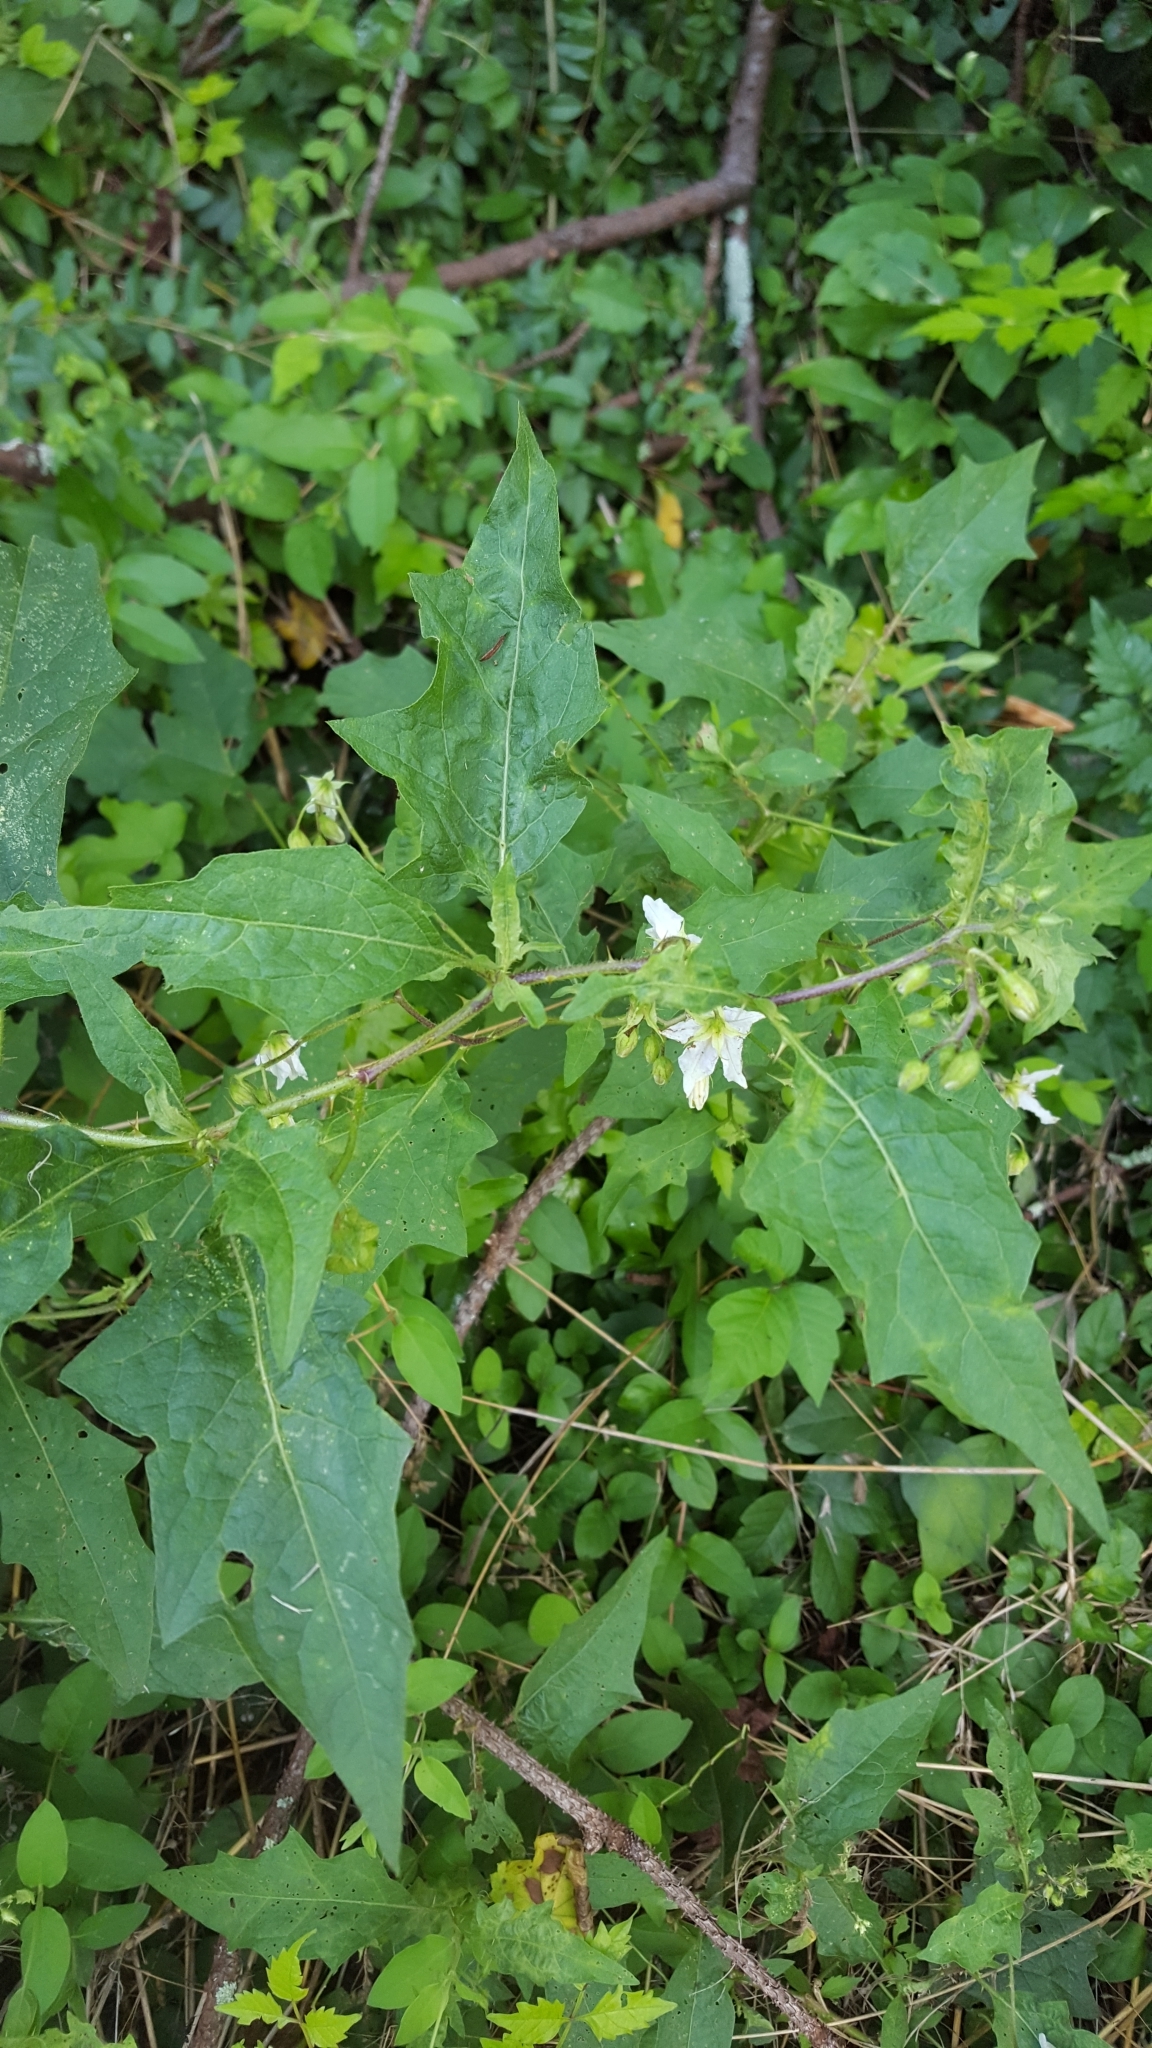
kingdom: Plantae
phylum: Tracheophyta
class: Magnoliopsida
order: Solanales
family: Solanaceae
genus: Solanum
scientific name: Solanum carolinense
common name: Horse-nettle
